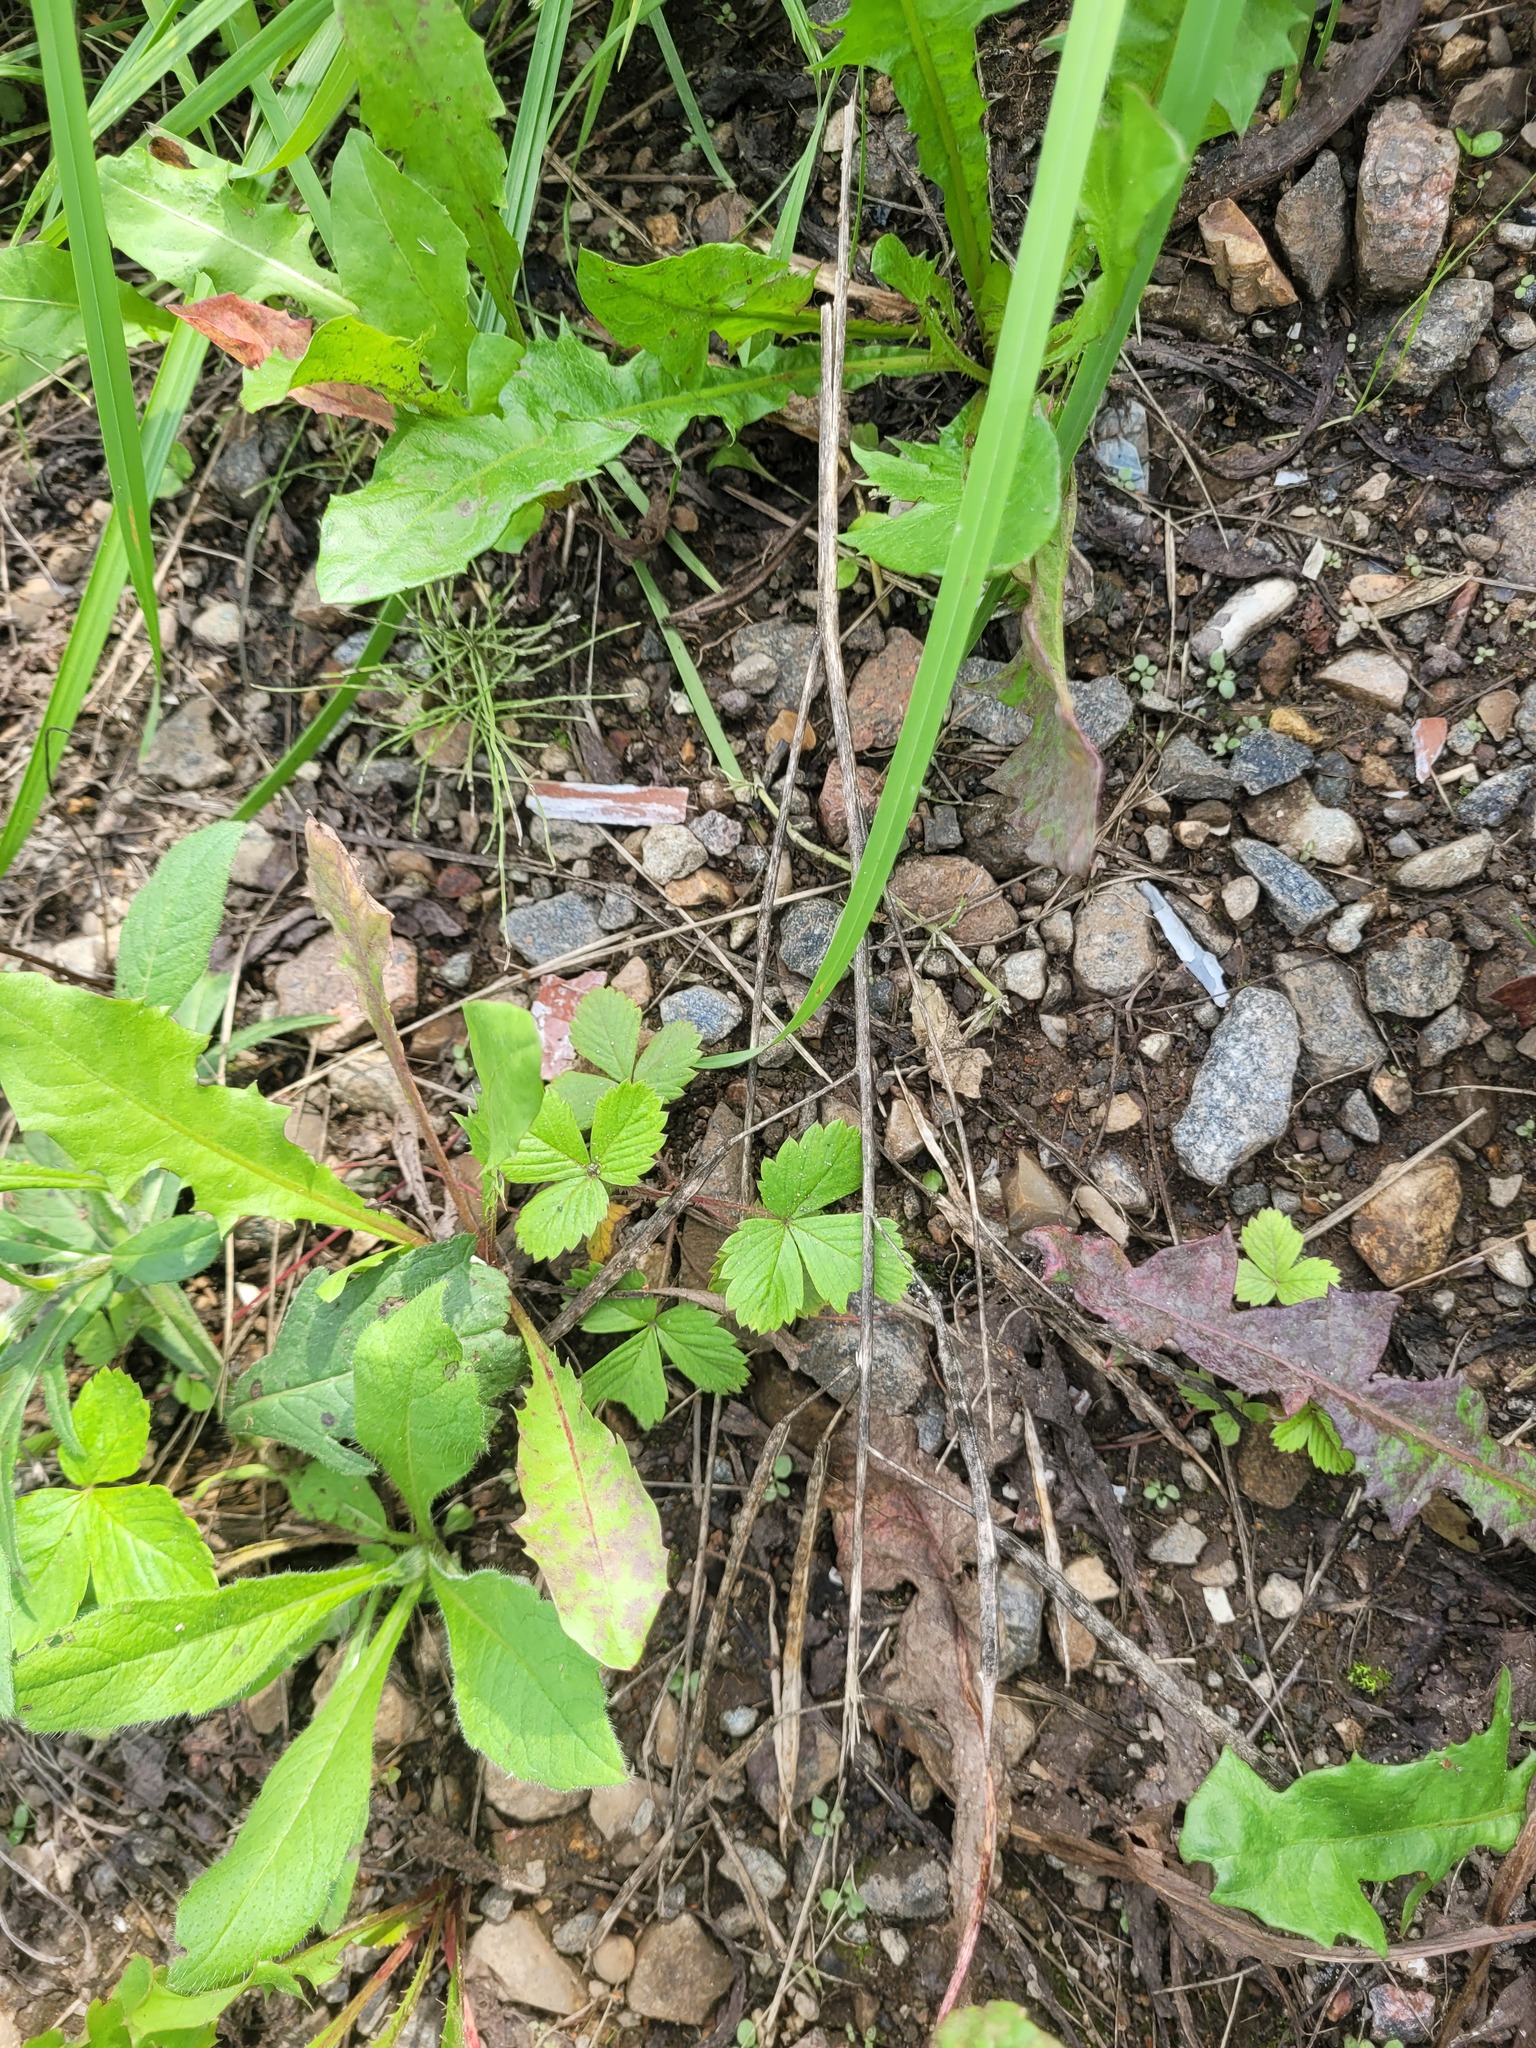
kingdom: Plantae
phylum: Tracheophyta
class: Magnoliopsida
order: Rosales
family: Rosaceae
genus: Fragaria
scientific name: Fragaria vesca
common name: Wild strawberry
